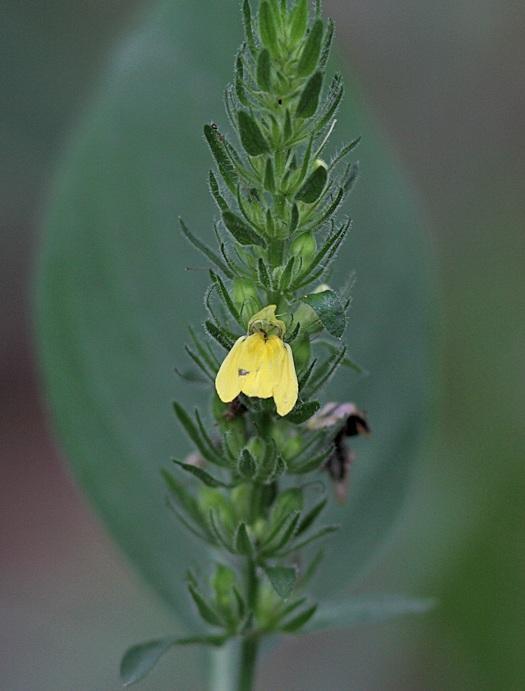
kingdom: Plantae
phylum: Tracheophyta
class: Magnoliopsida
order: Lamiales
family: Acanthaceae
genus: Justicia
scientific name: Justicia flava
